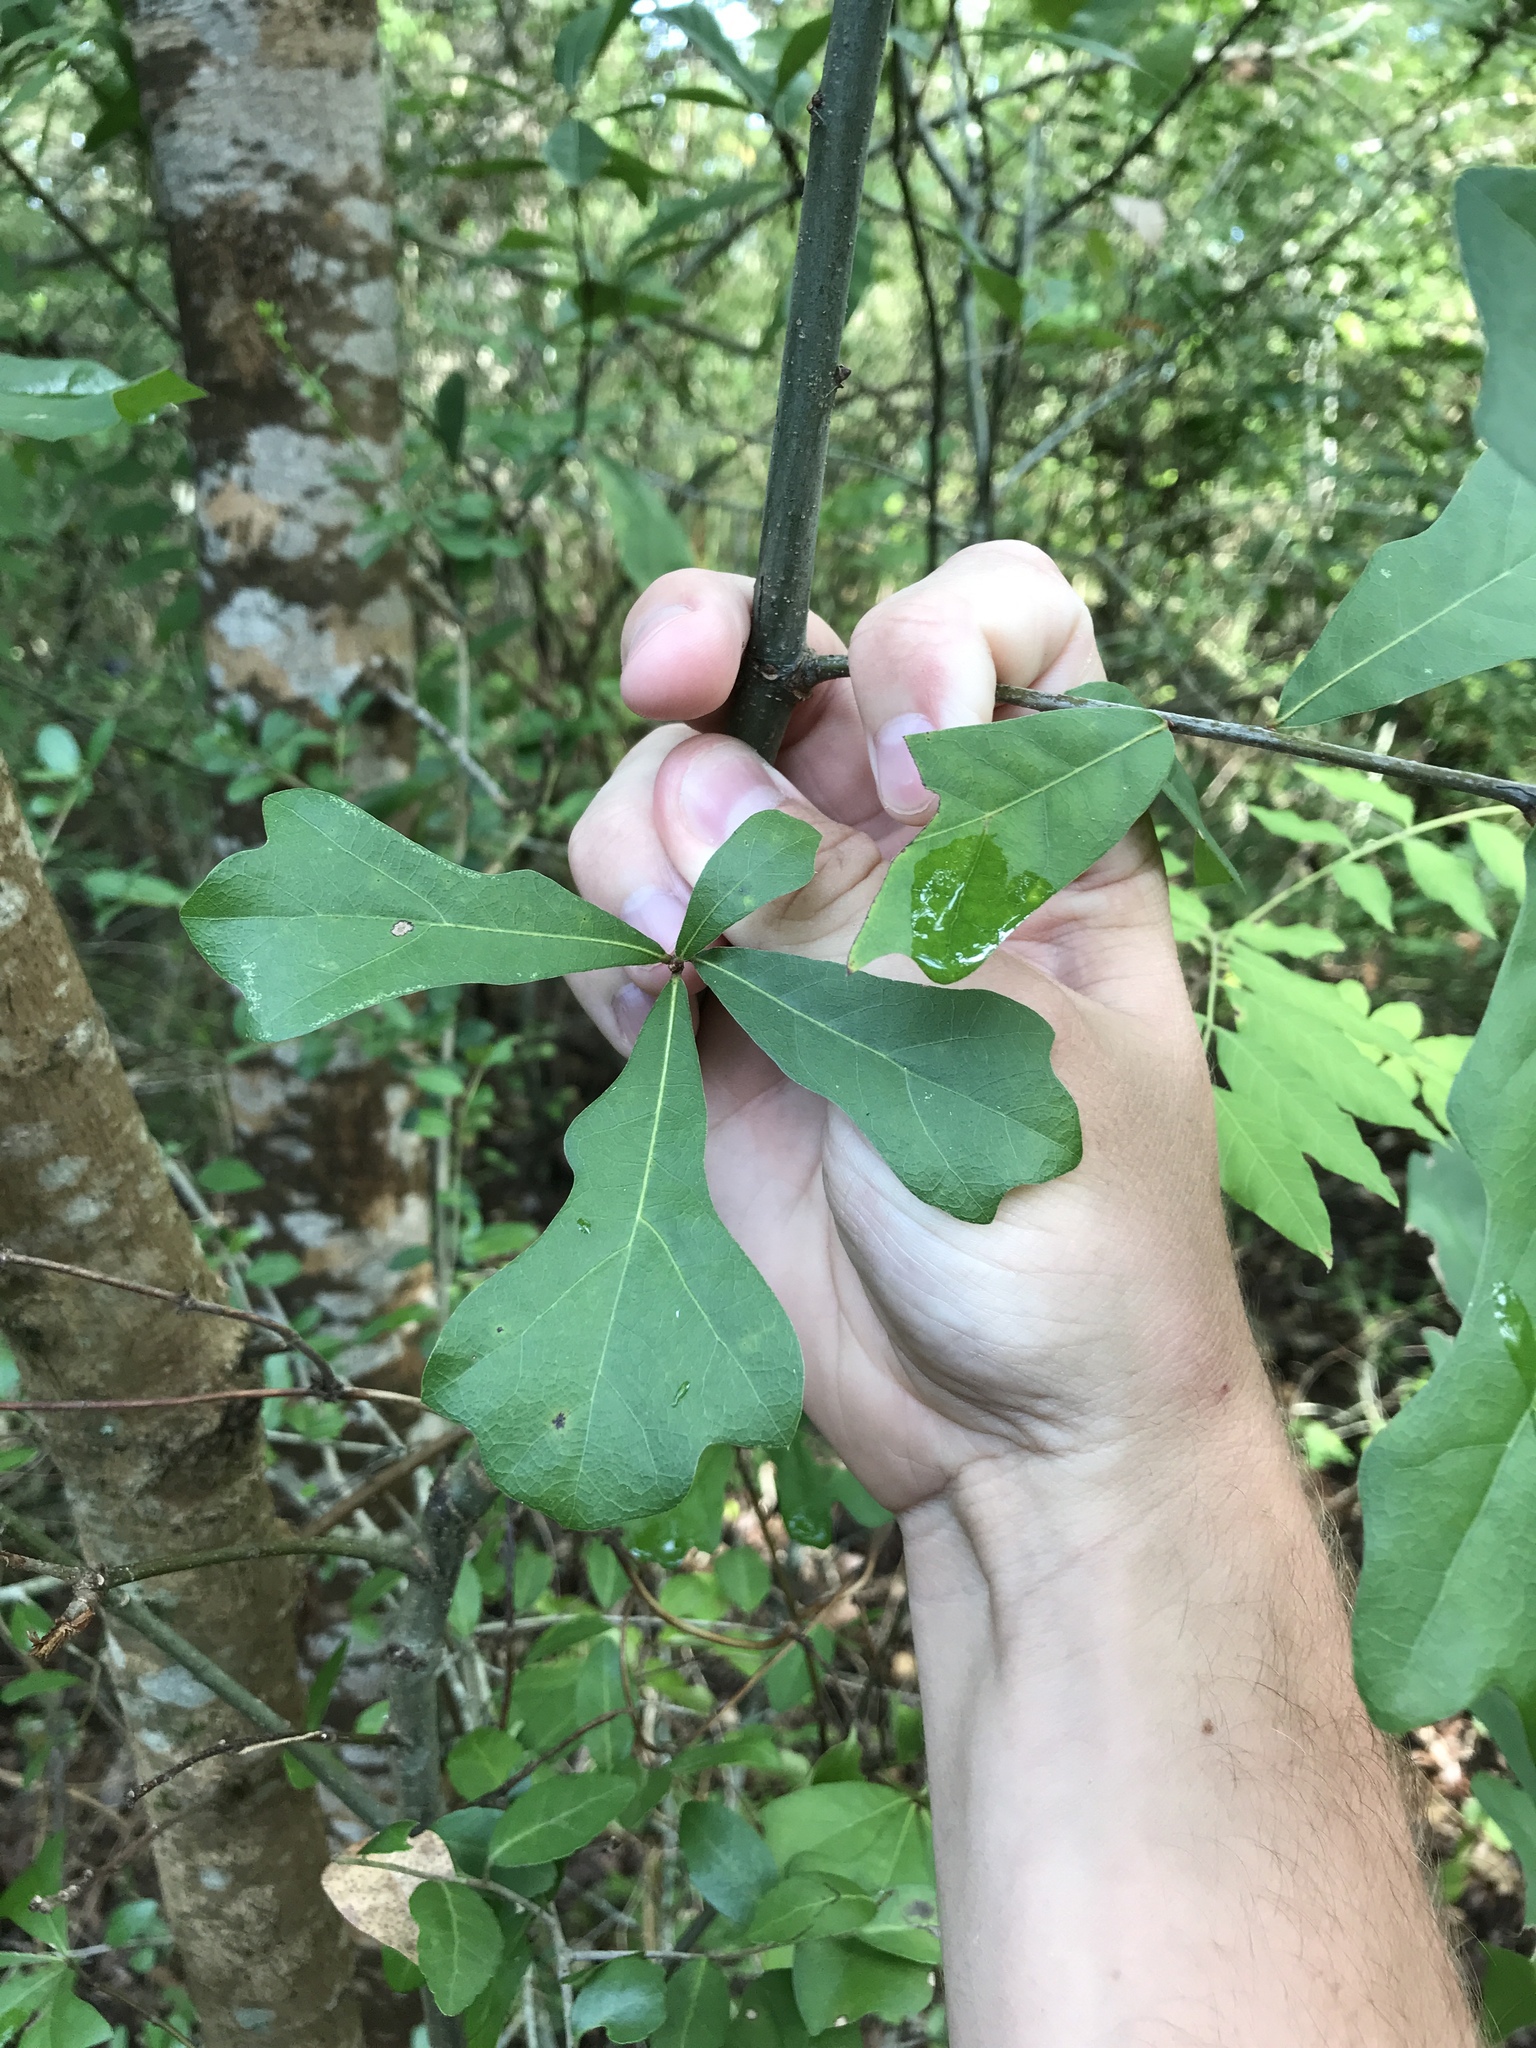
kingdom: Plantae
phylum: Tracheophyta
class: Magnoliopsida
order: Fagales
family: Fagaceae
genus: Quercus
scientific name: Quercus nigra
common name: Water oak
